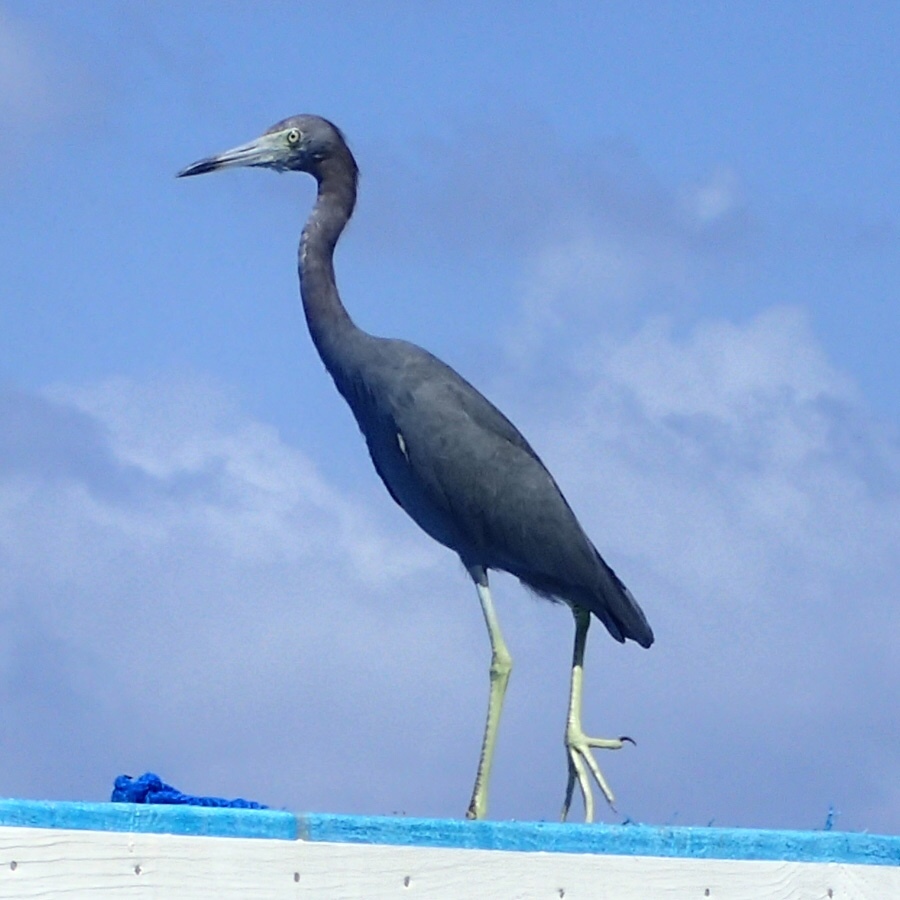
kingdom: Animalia
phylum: Chordata
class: Aves
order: Pelecaniformes
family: Ardeidae
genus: Egretta
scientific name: Egretta caerulea
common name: Little blue heron
